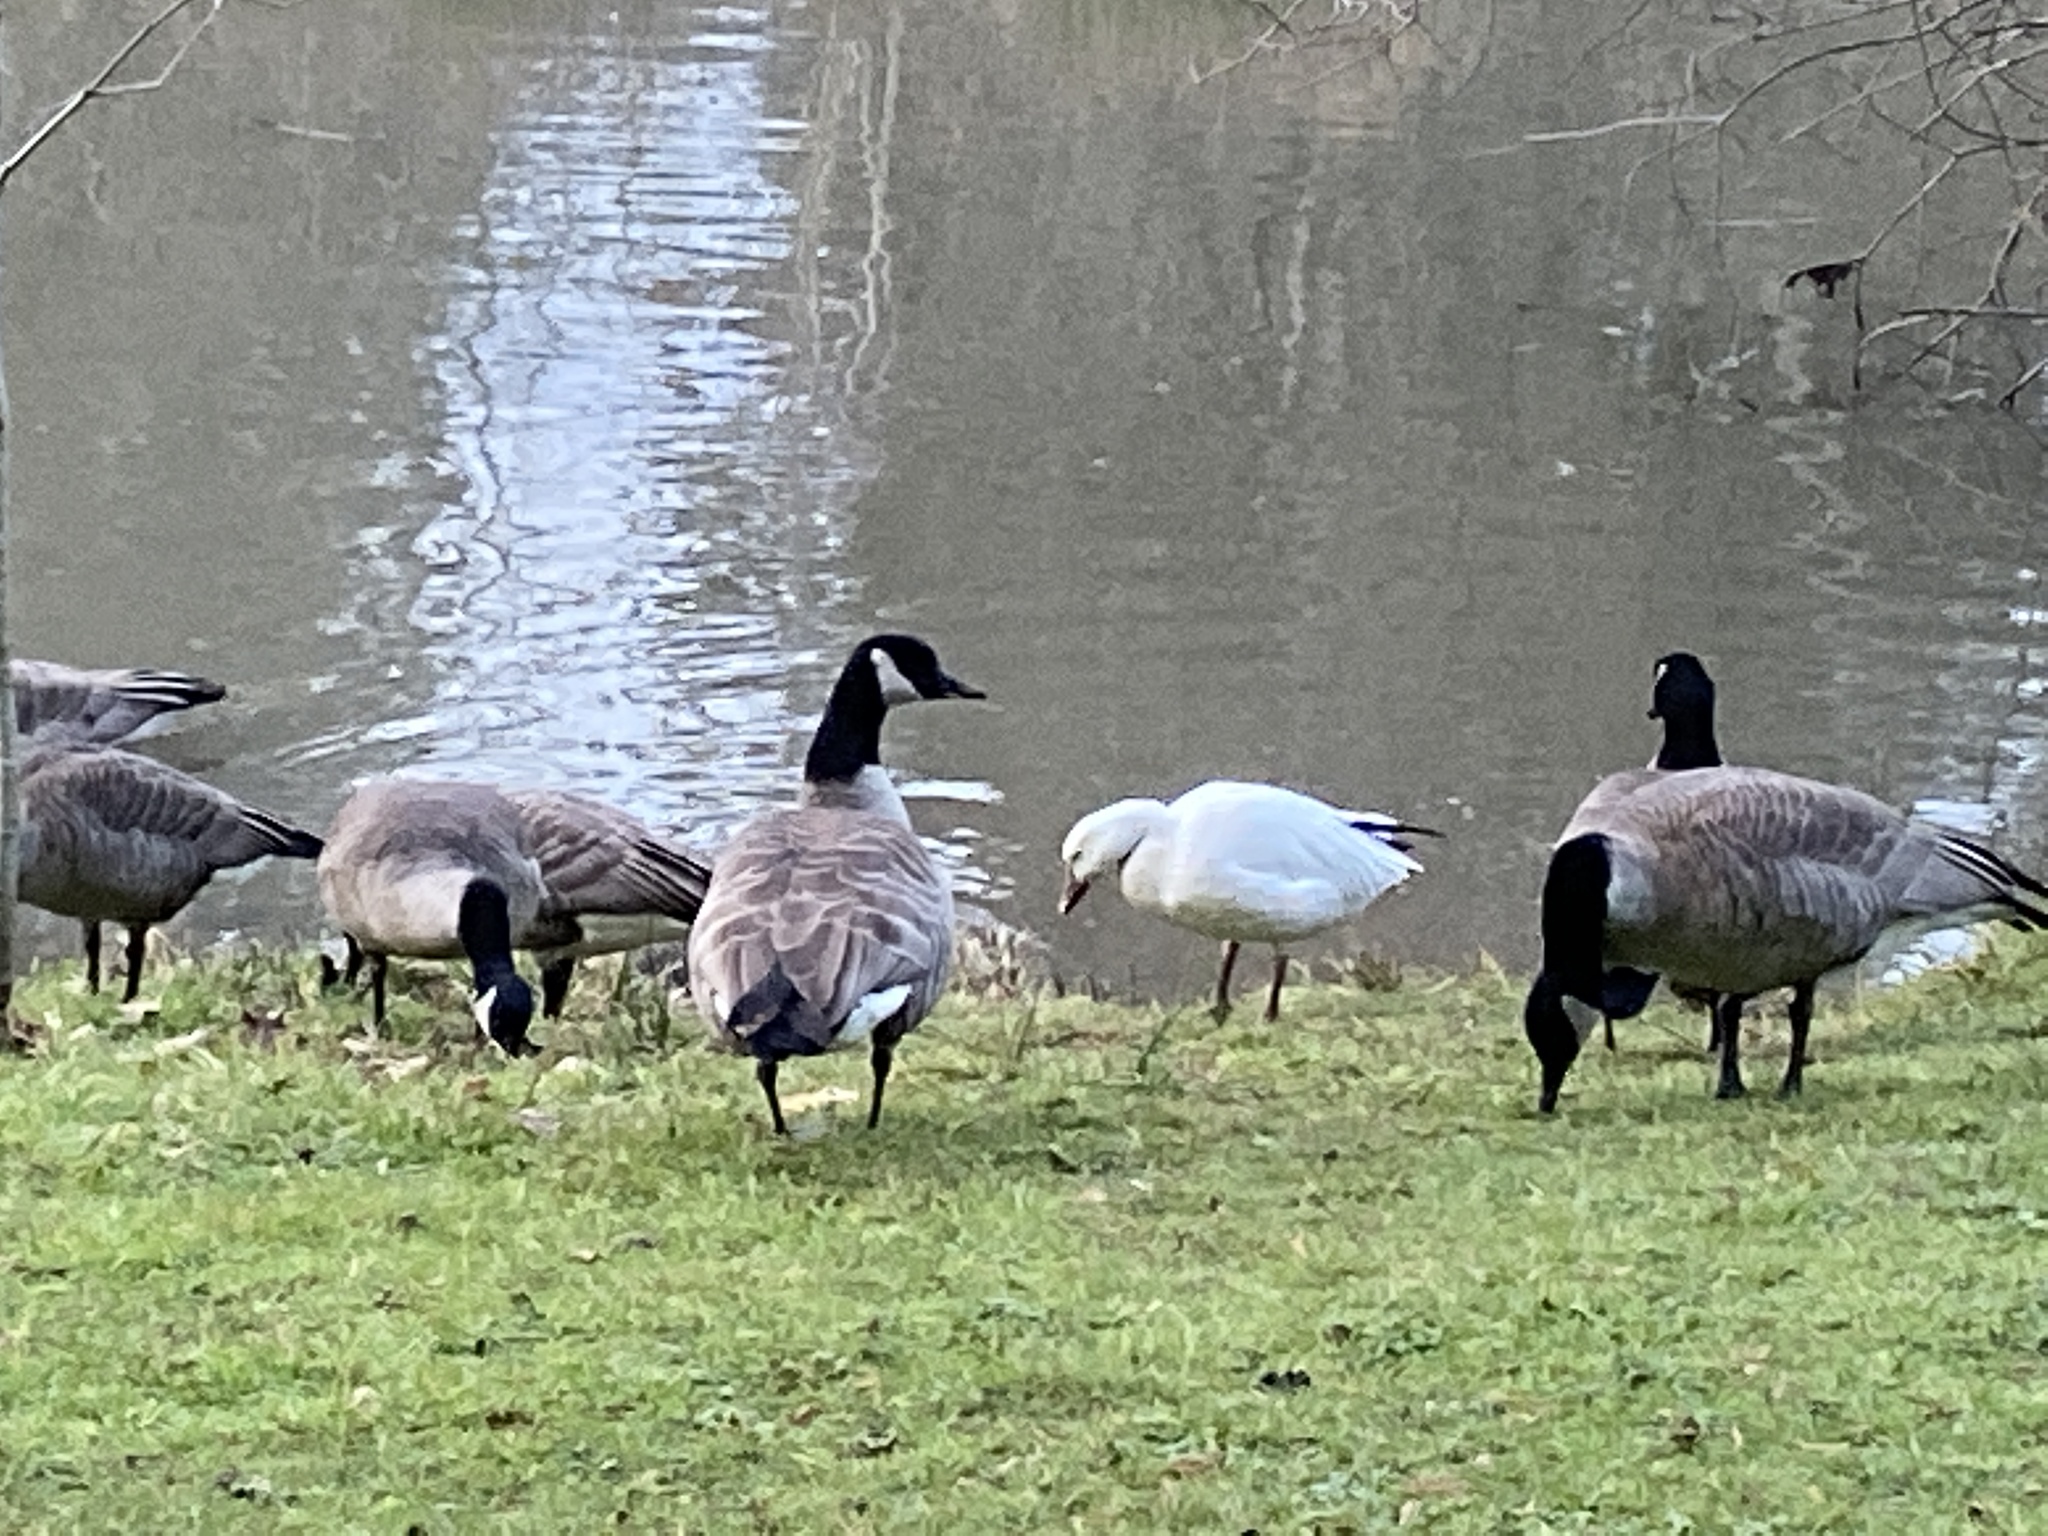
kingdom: Animalia
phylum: Chordata
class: Aves
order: Anseriformes
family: Anatidae
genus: Anser
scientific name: Anser caerulescens
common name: Snow goose
